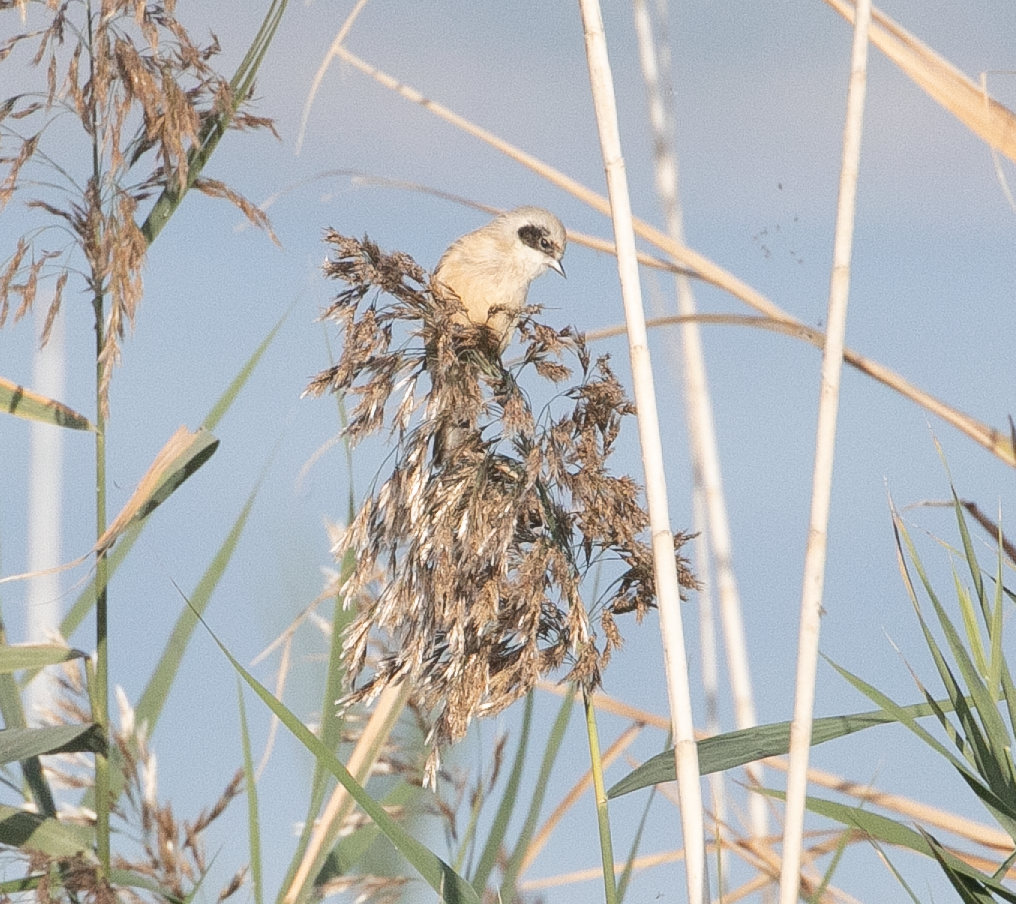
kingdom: Animalia
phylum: Chordata
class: Aves
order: Passeriformes
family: Remizidae
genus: Remiz
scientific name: Remiz pendulinus
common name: Eurasian penduline tit
